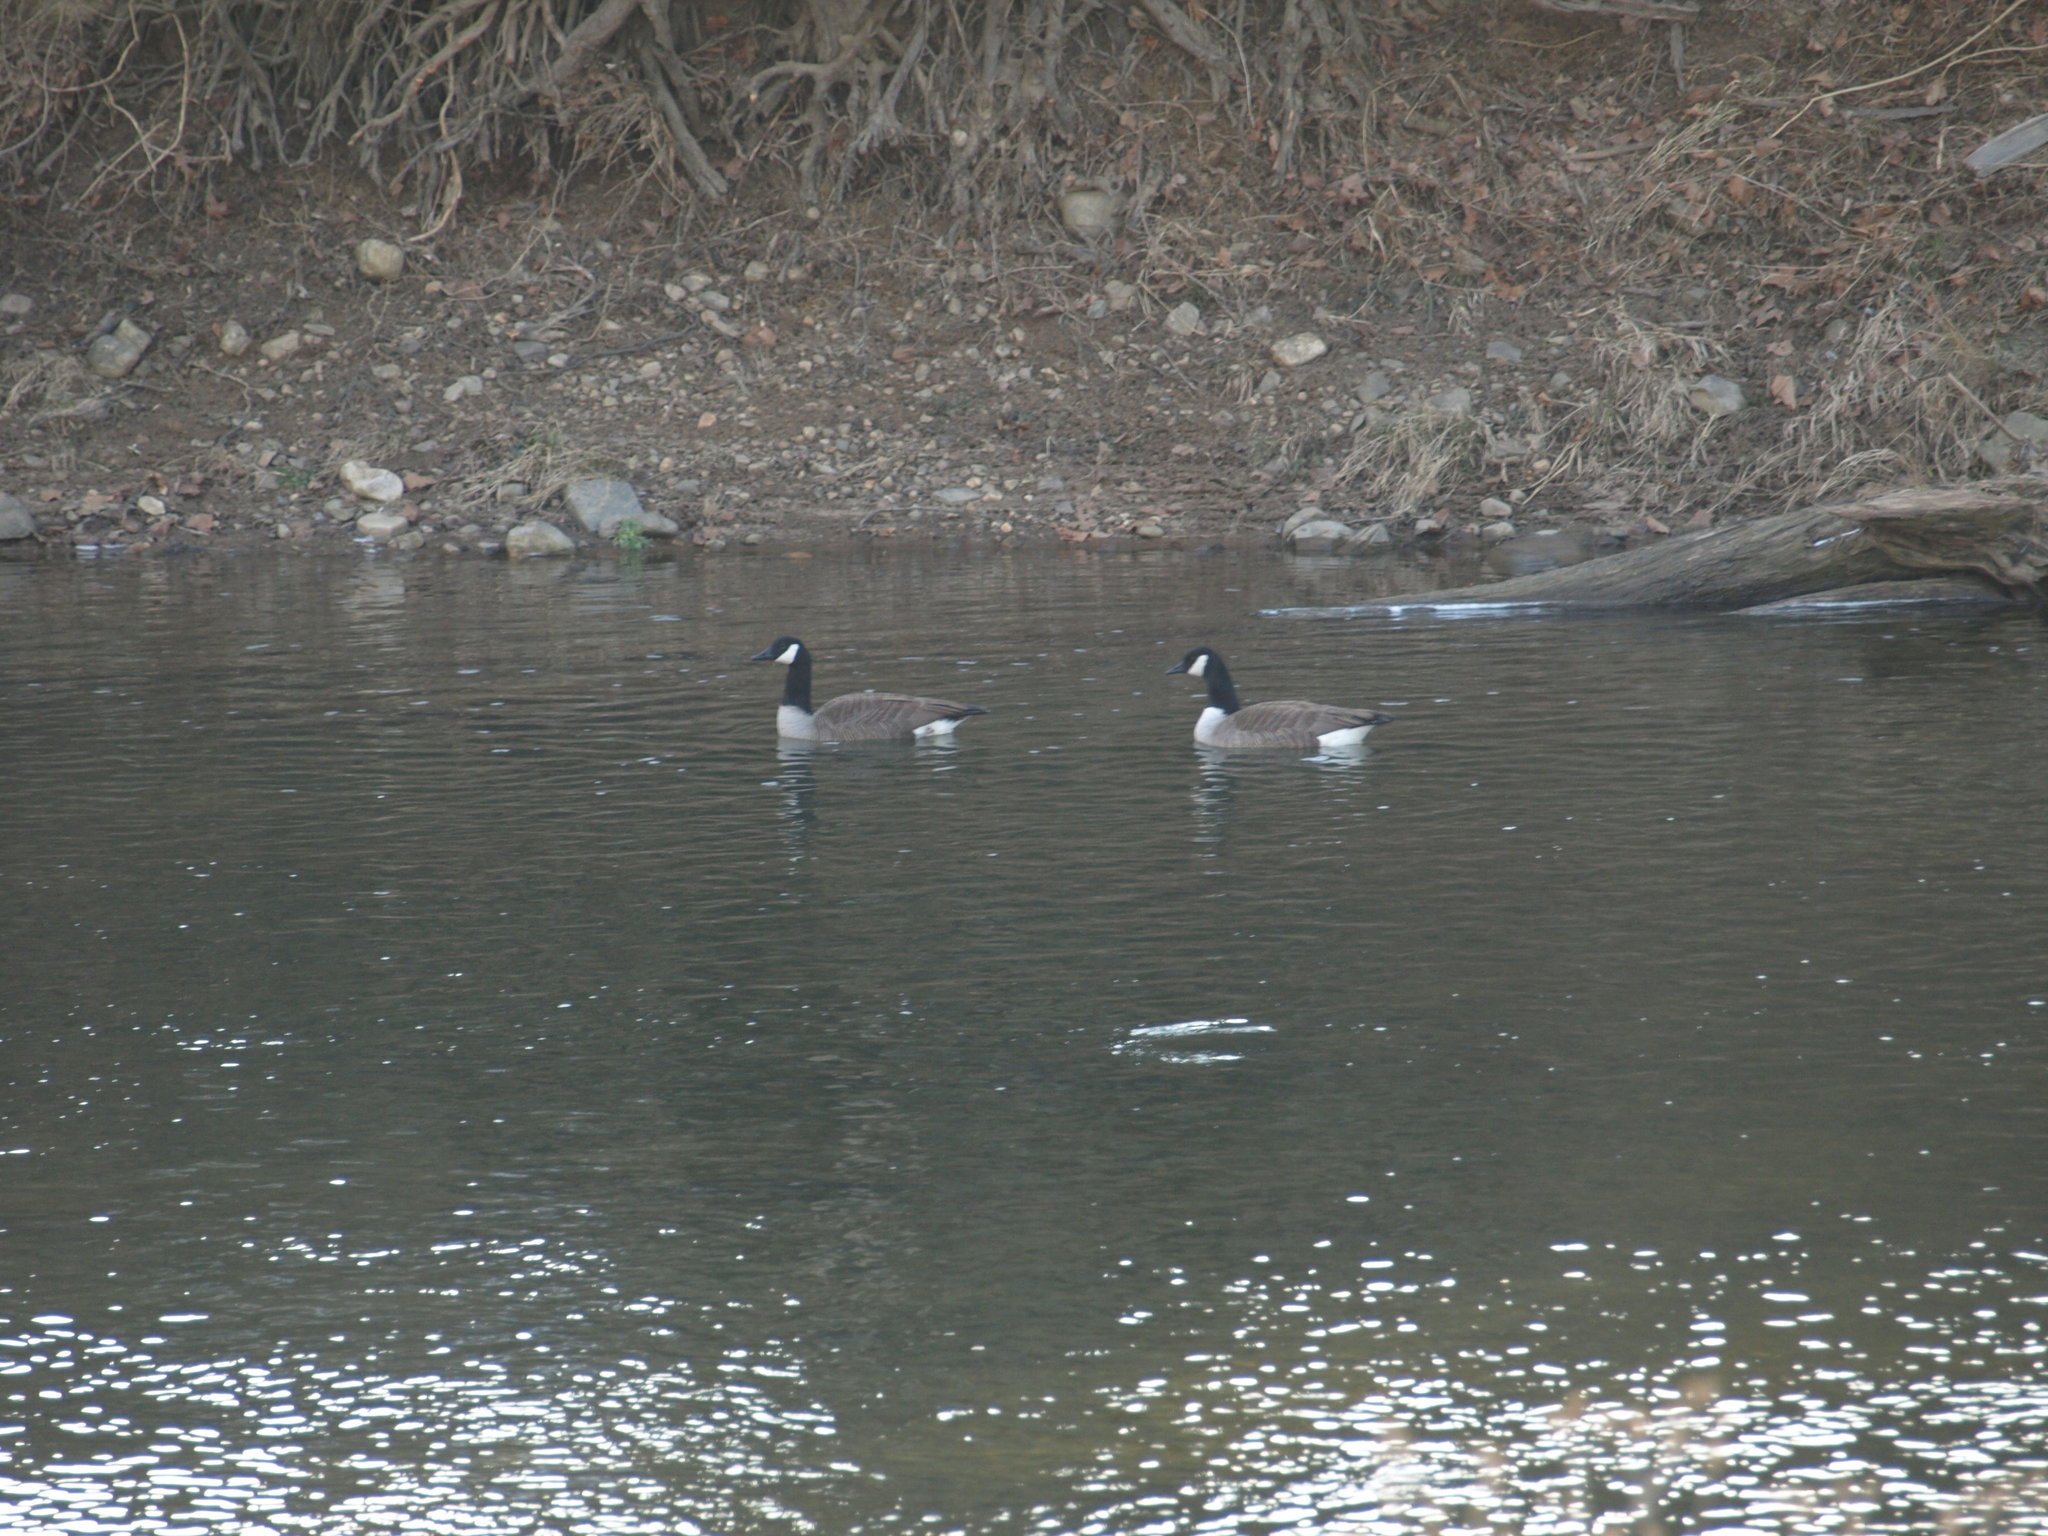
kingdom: Animalia
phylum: Chordata
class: Aves
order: Anseriformes
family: Anatidae
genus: Branta
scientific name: Branta canadensis
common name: Canada goose
